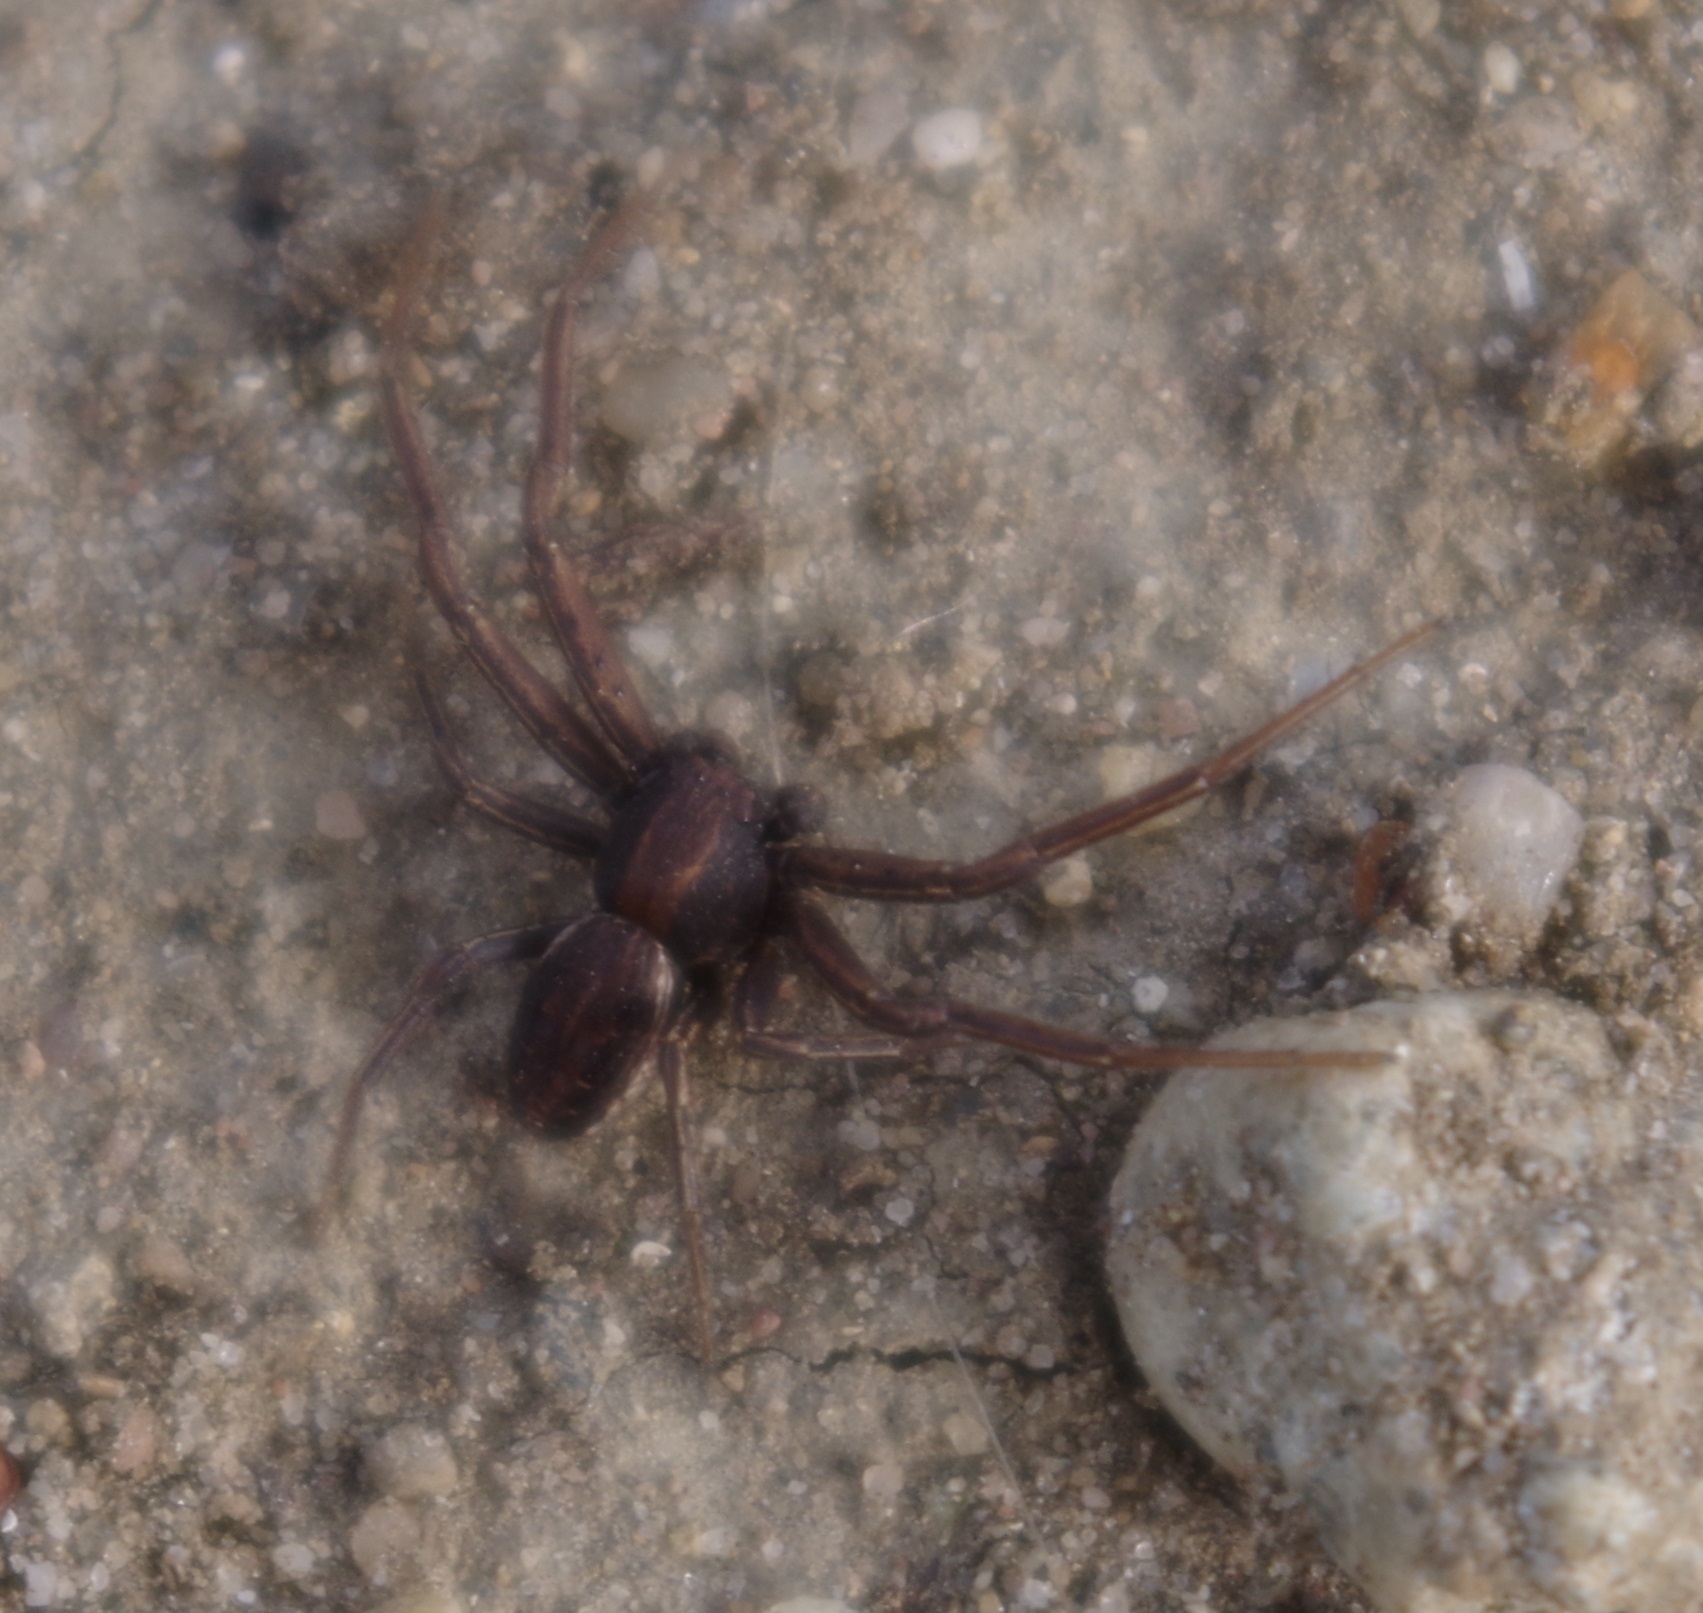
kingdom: Animalia
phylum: Arthropoda
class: Arachnida
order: Araneae
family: Thomisidae
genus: Spiracme
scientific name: Spiracme striatipes
